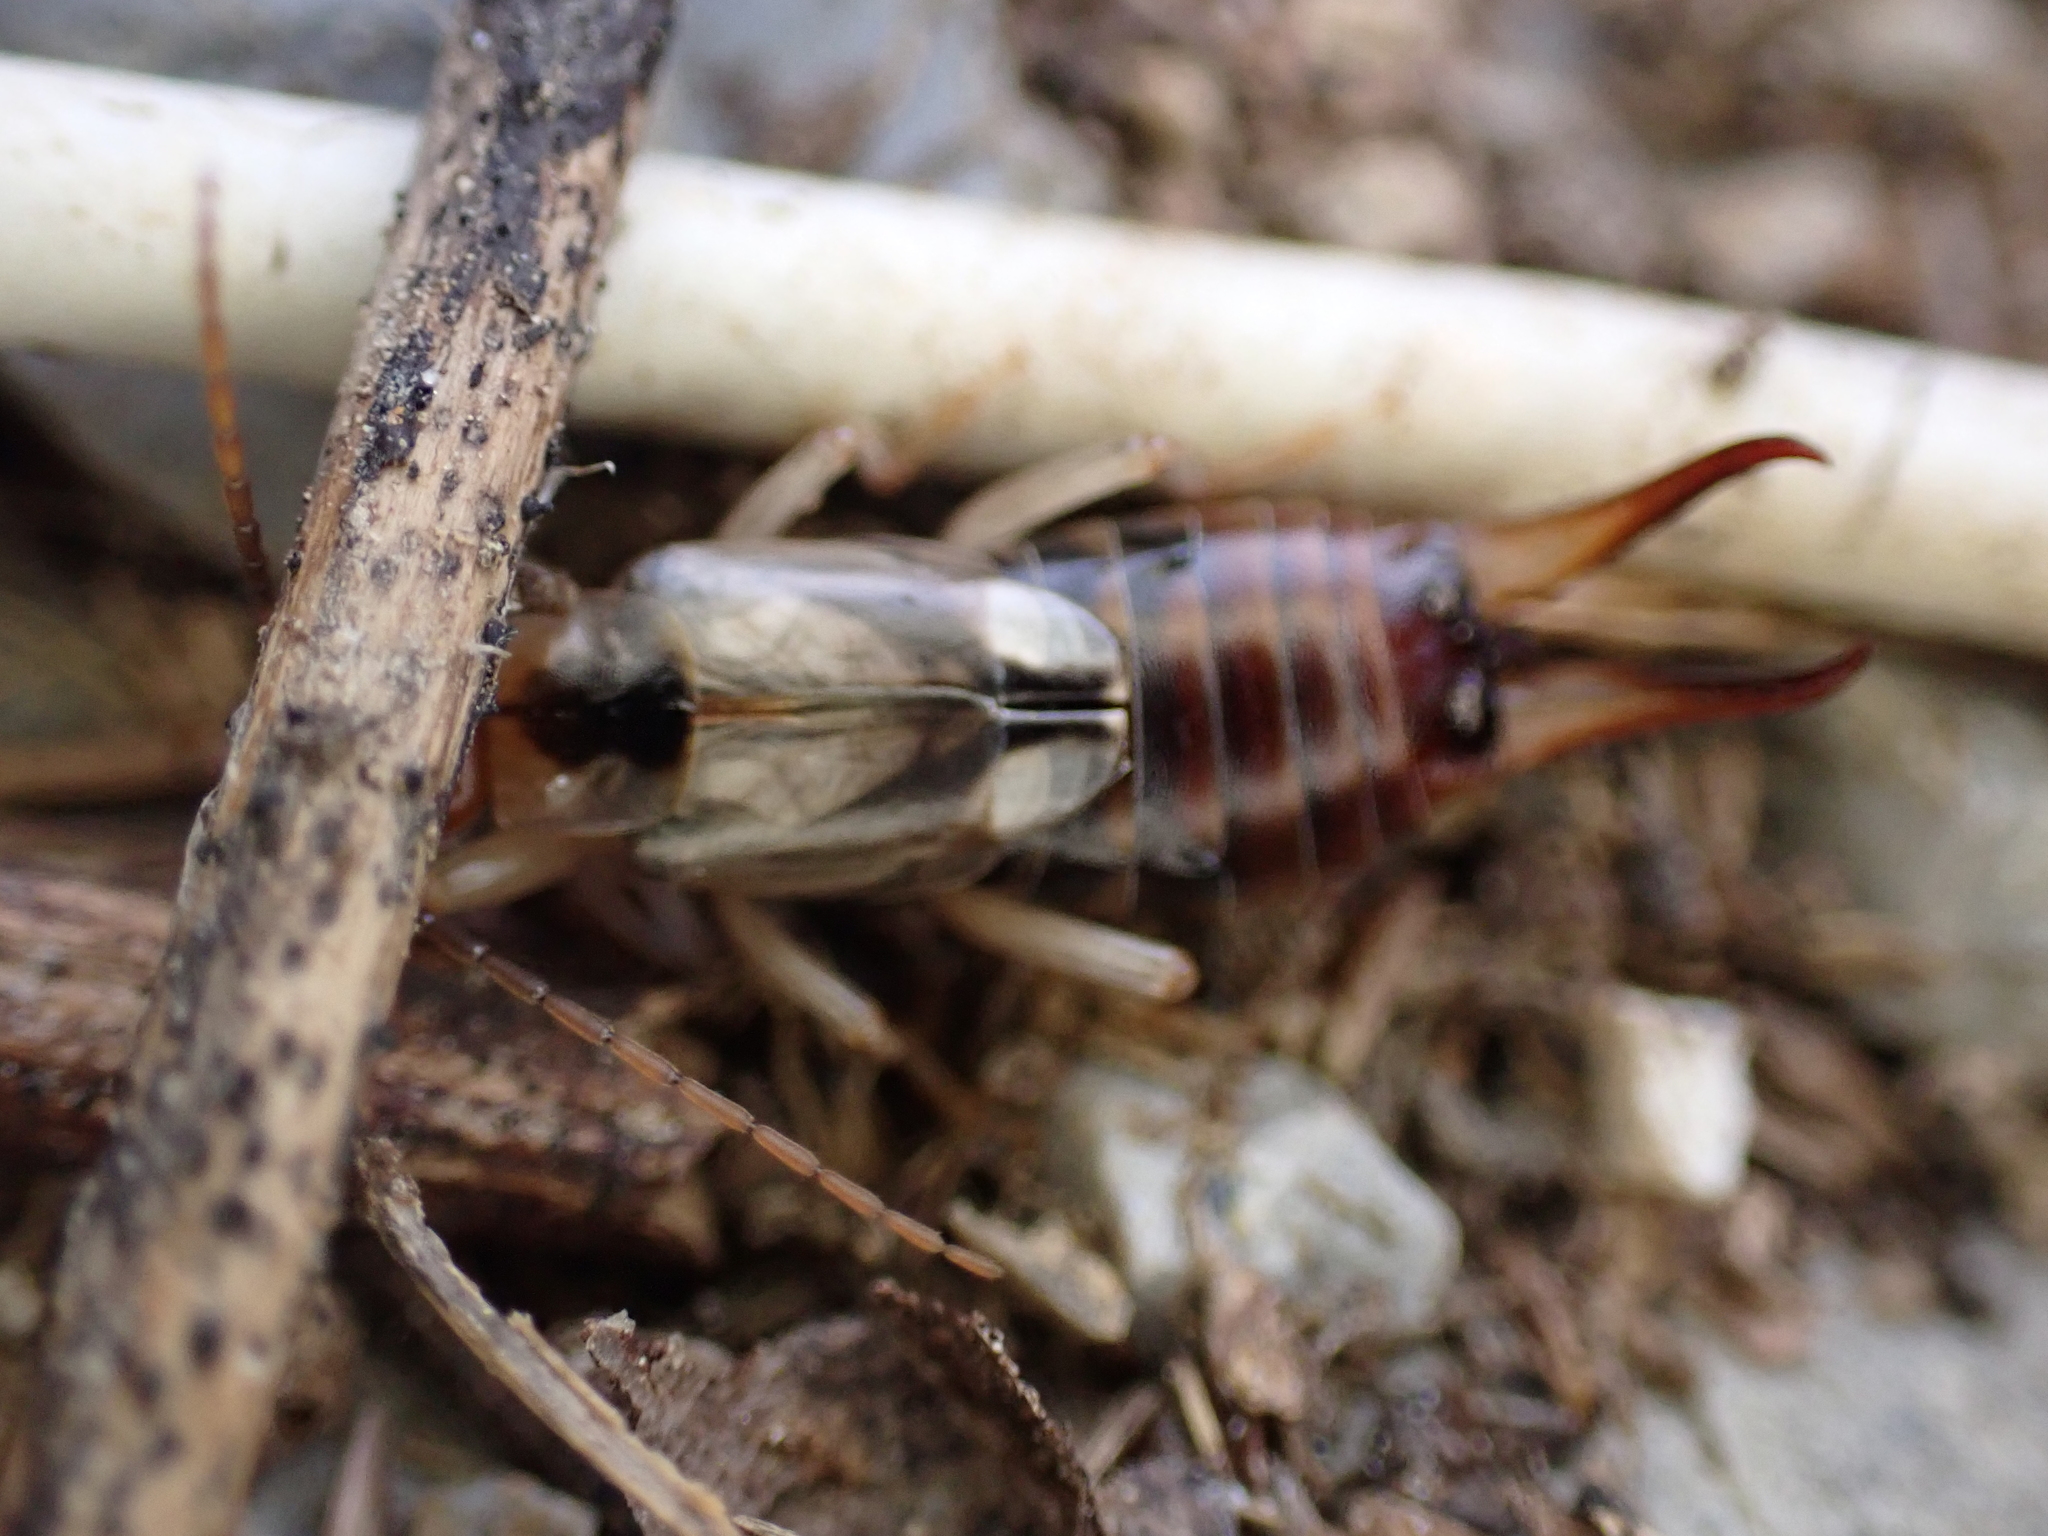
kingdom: Animalia
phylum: Arthropoda
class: Insecta
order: Dermaptera
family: Forficulidae
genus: Forficula
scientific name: Forficula
